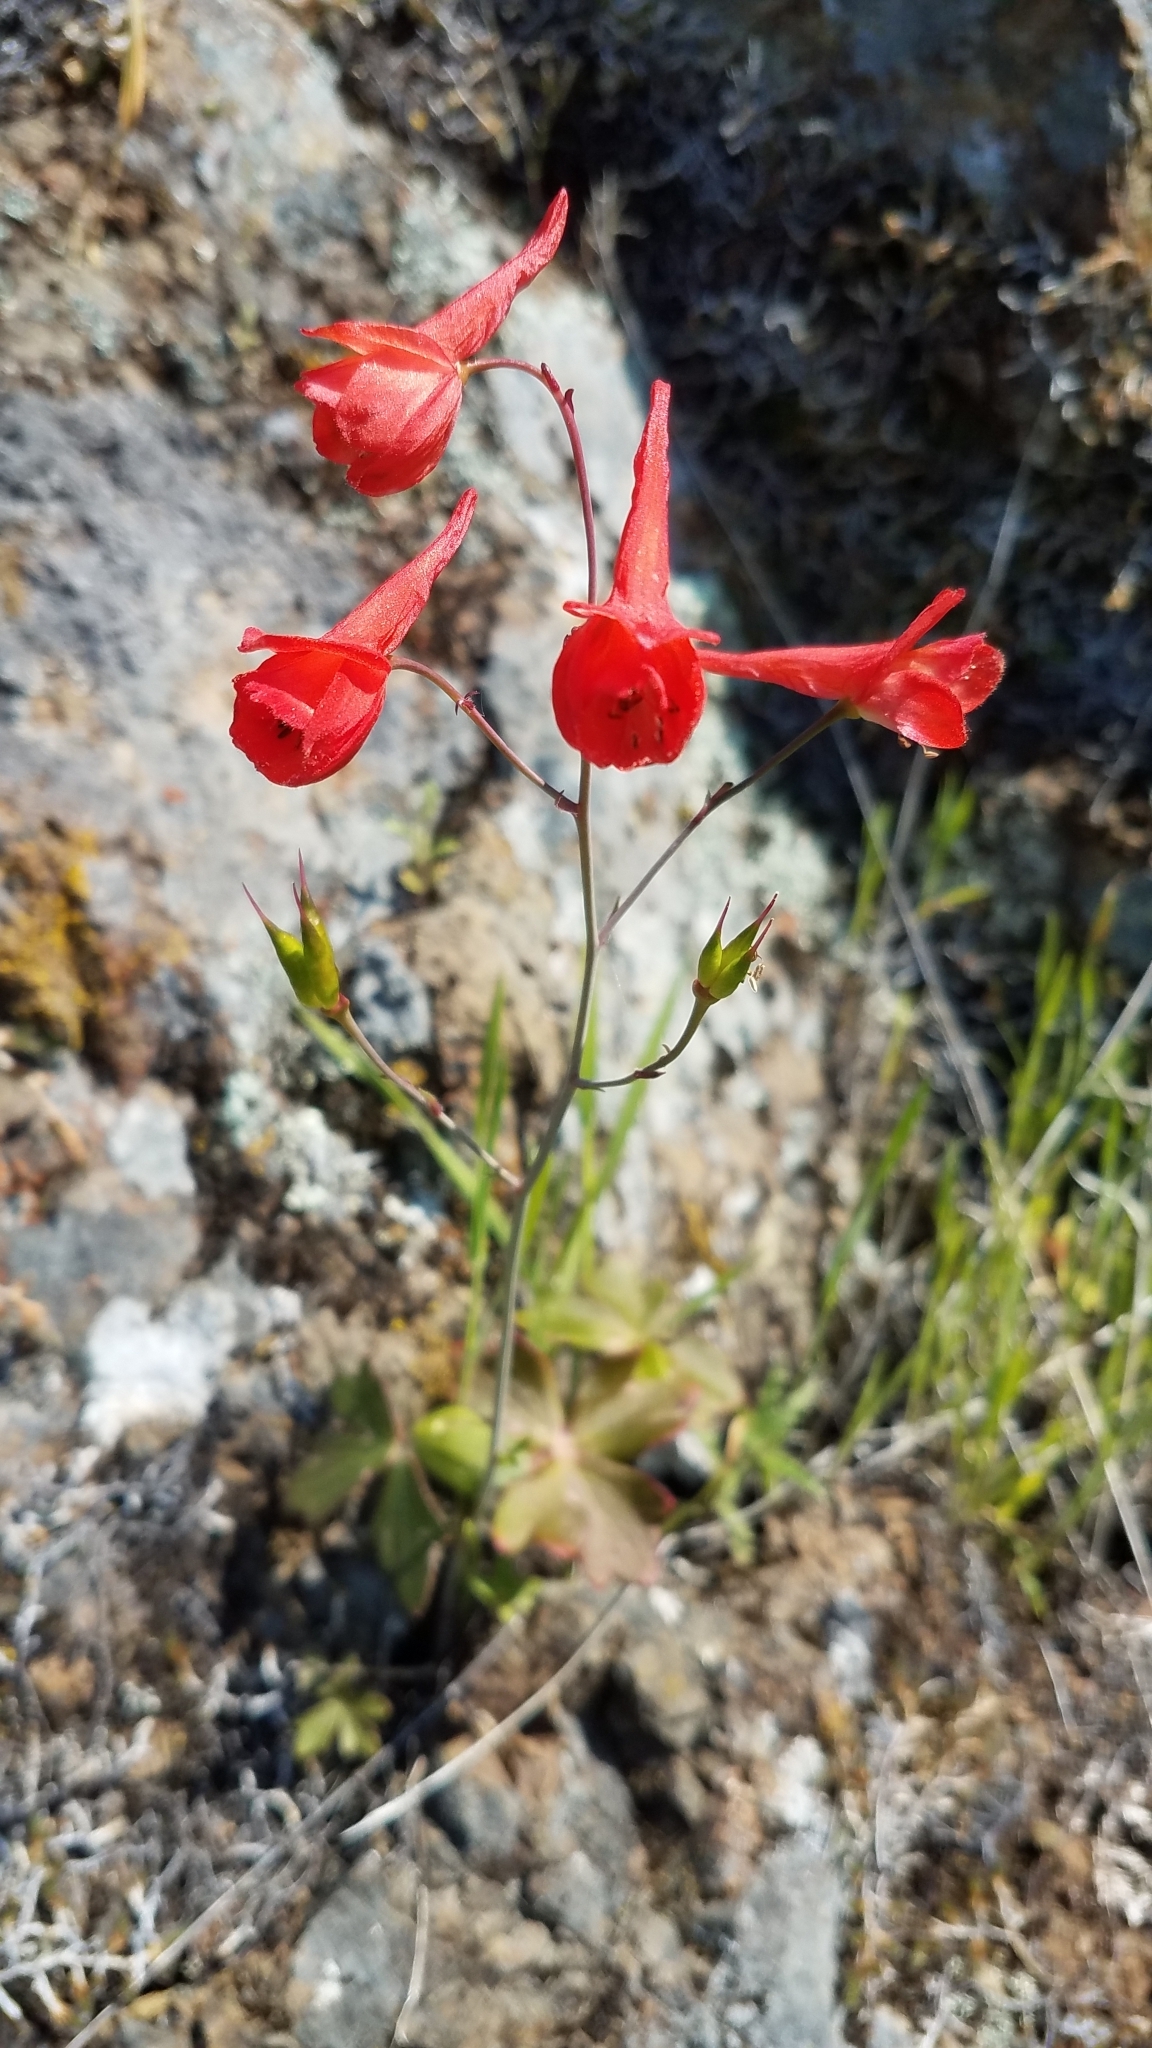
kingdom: Plantae
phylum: Tracheophyta
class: Magnoliopsida
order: Ranunculales
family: Ranunculaceae
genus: Delphinium
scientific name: Delphinium nudicaule
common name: Red larkspur
